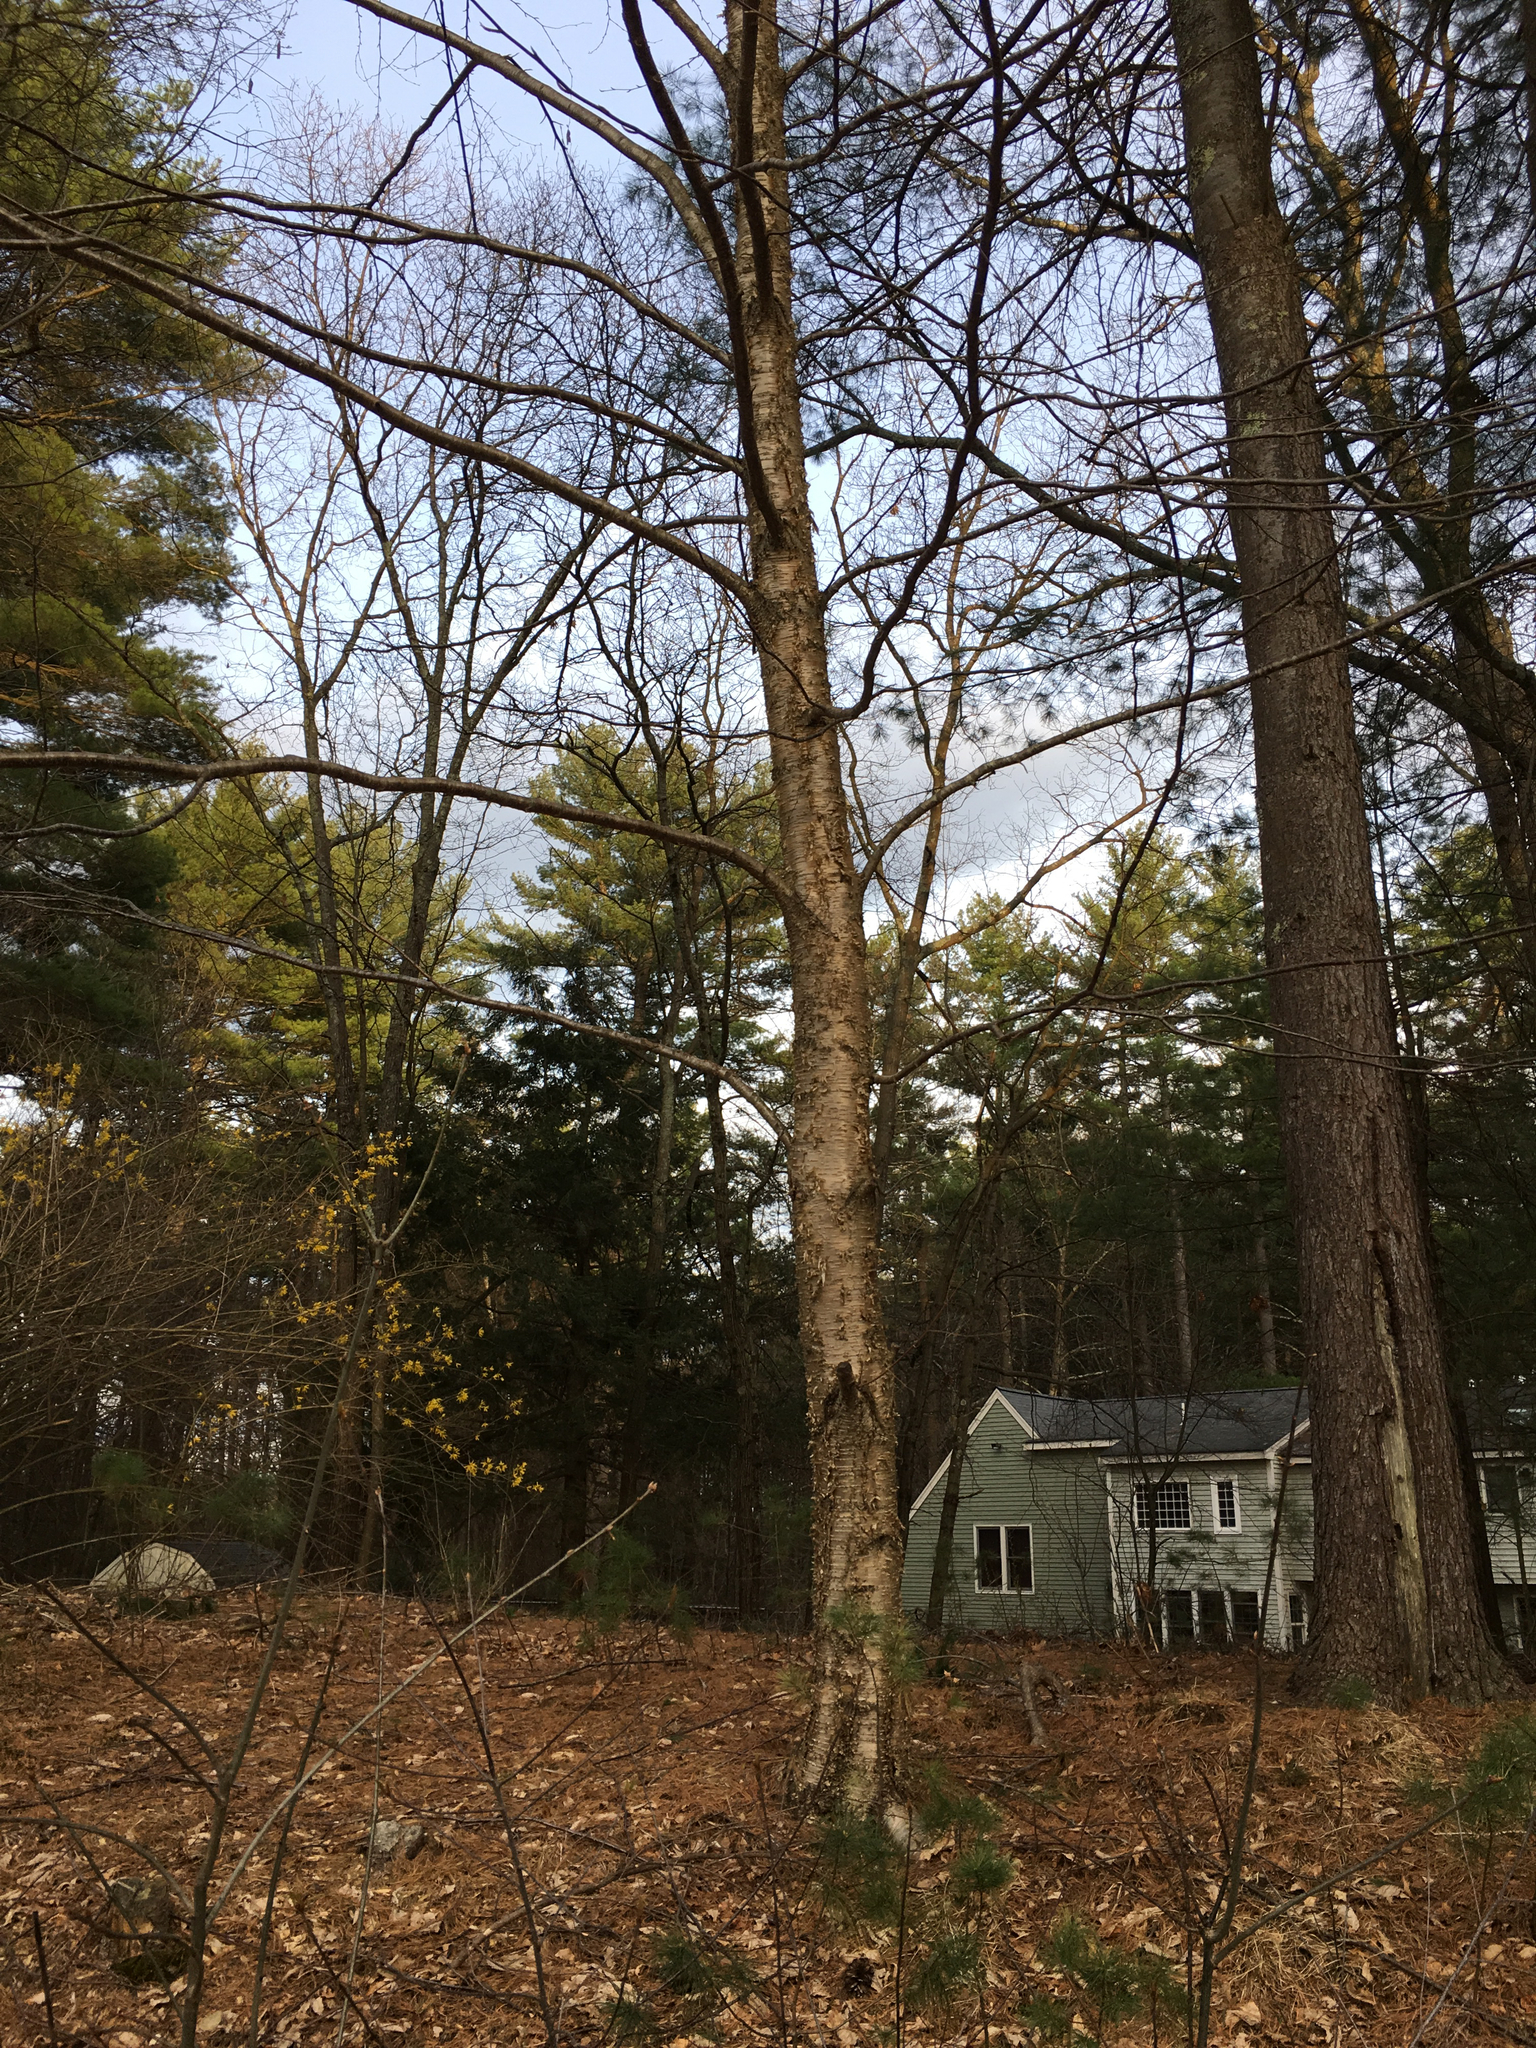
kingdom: Plantae
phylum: Tracheophyta
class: Magnoliopsida
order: Fagales
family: Betulaceae
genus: Betula
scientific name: Betula alleghaniensis
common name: Yellow birch
